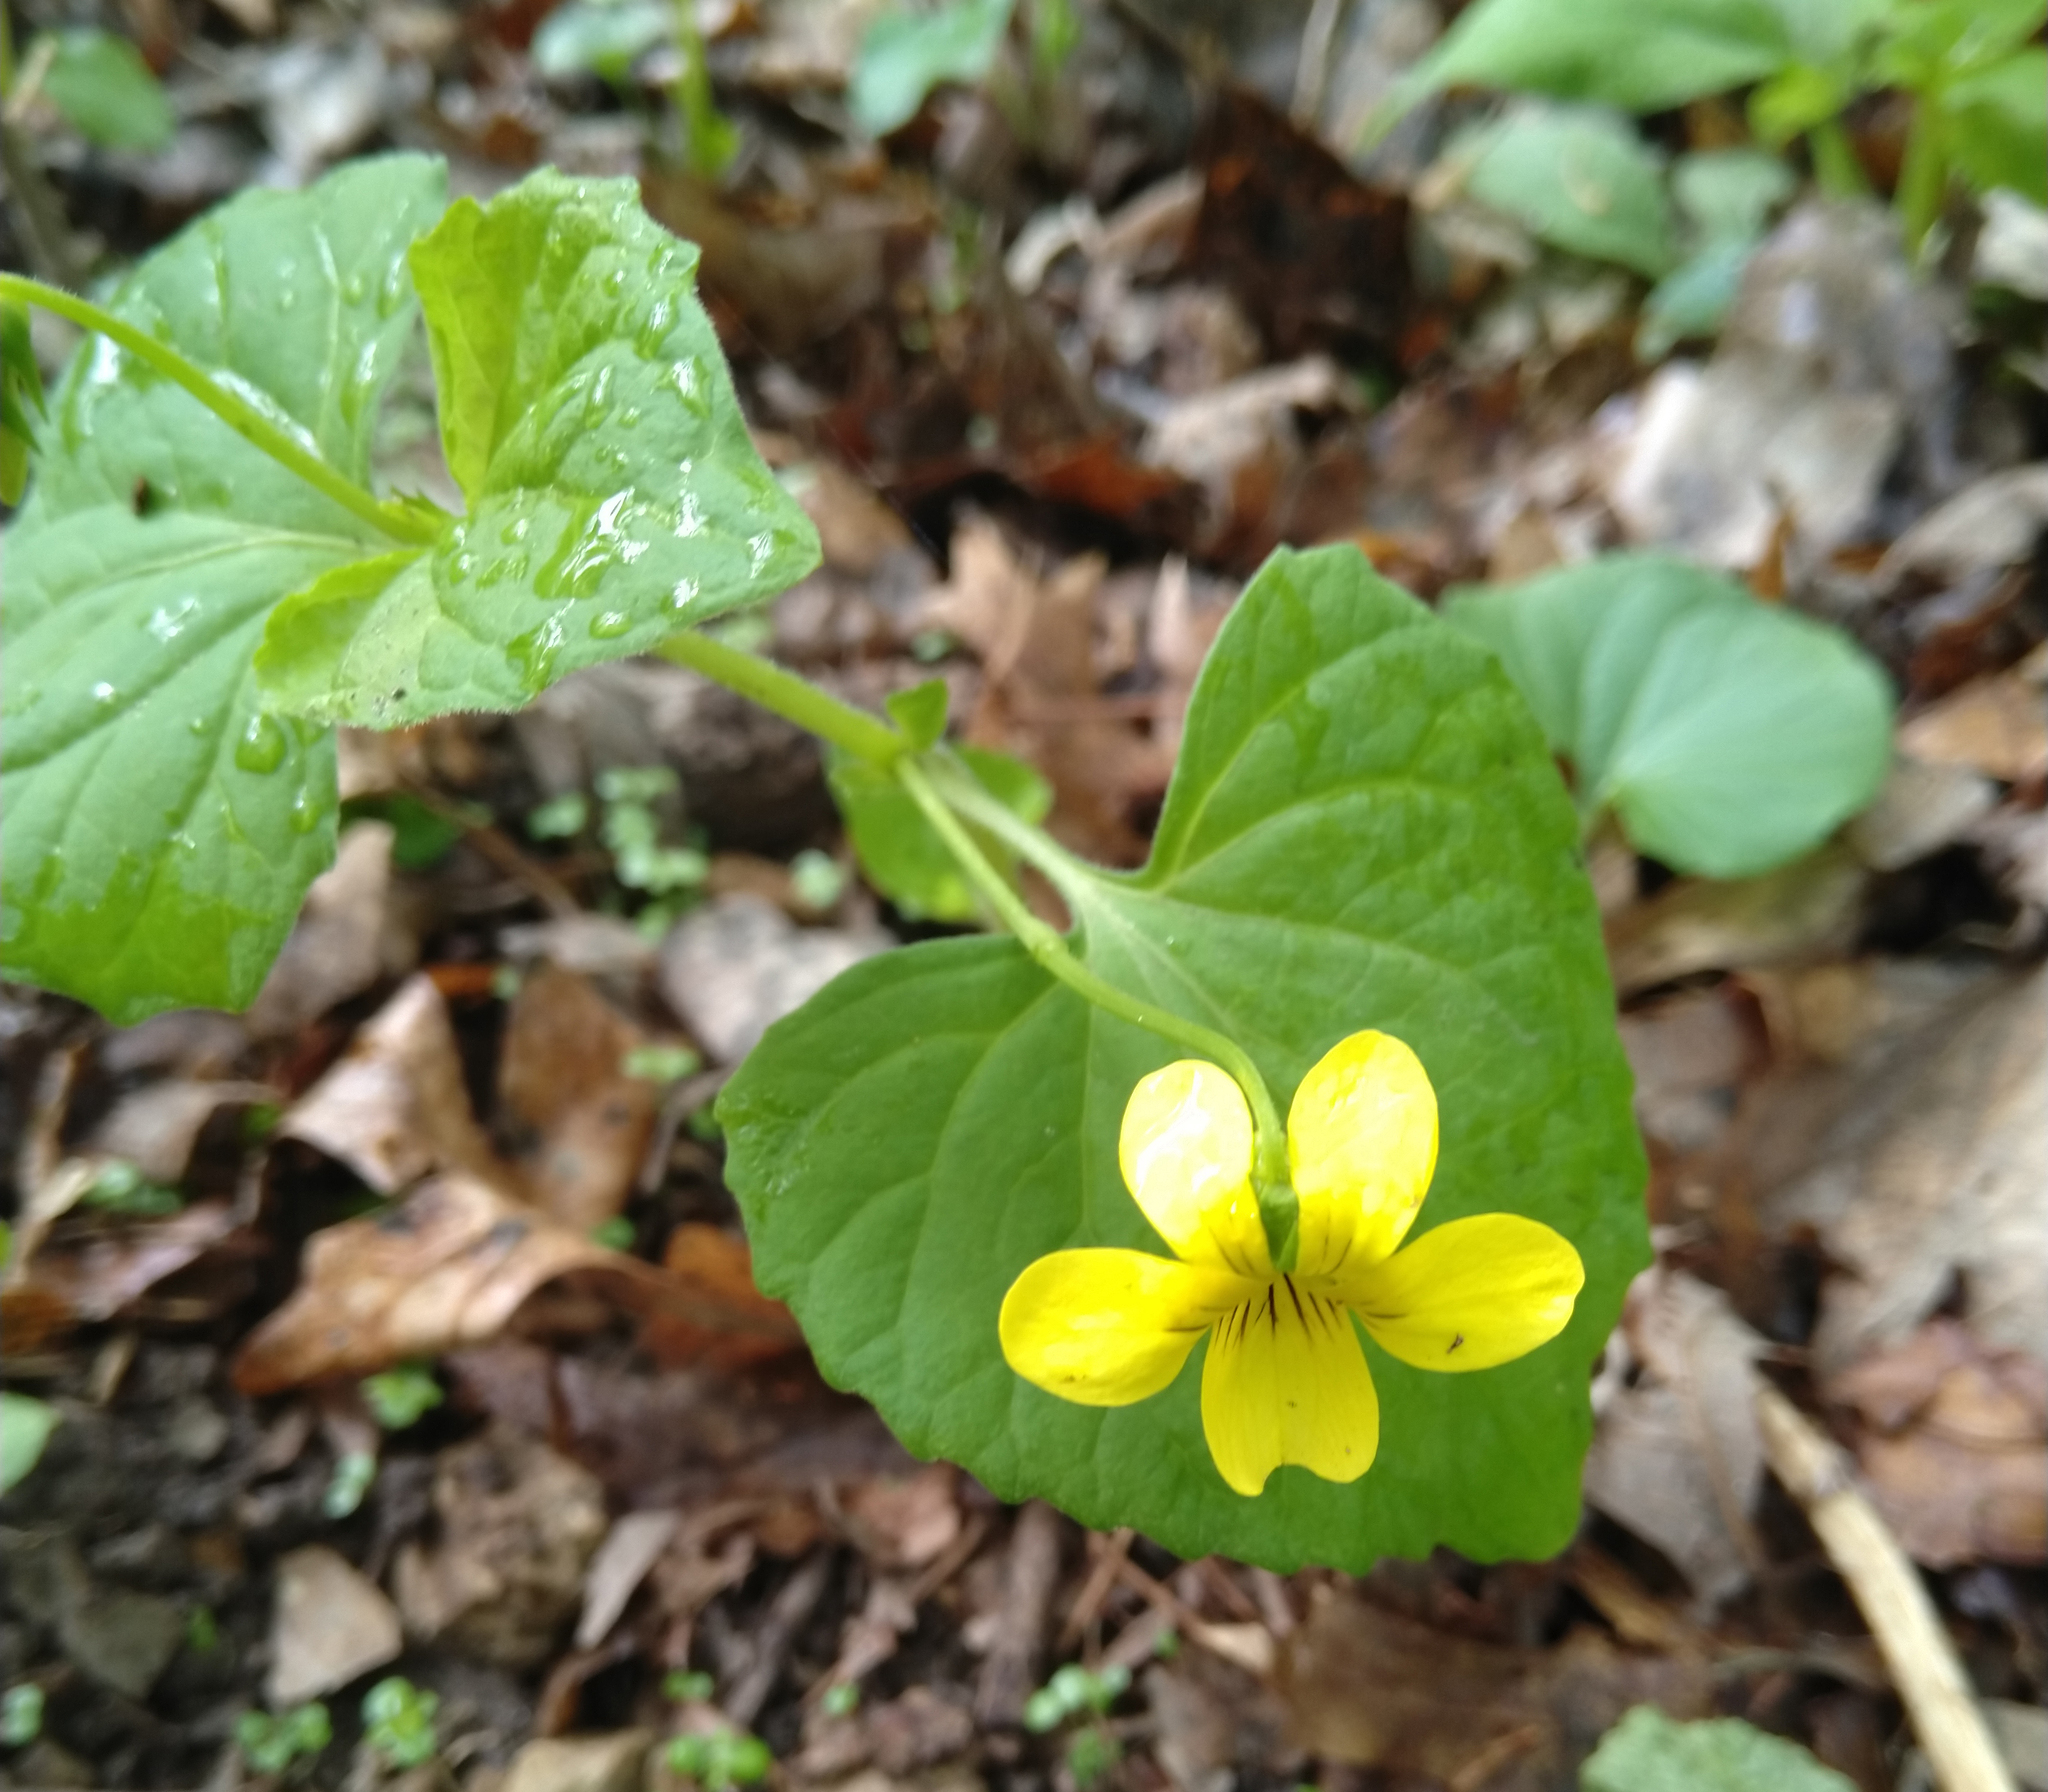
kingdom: Plantae
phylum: Tracheophyta
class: Magnoliopsida
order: Malpighiales
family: Violaceae
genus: Viola
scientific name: Viola eriocarpa
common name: Smooth yellow violet
